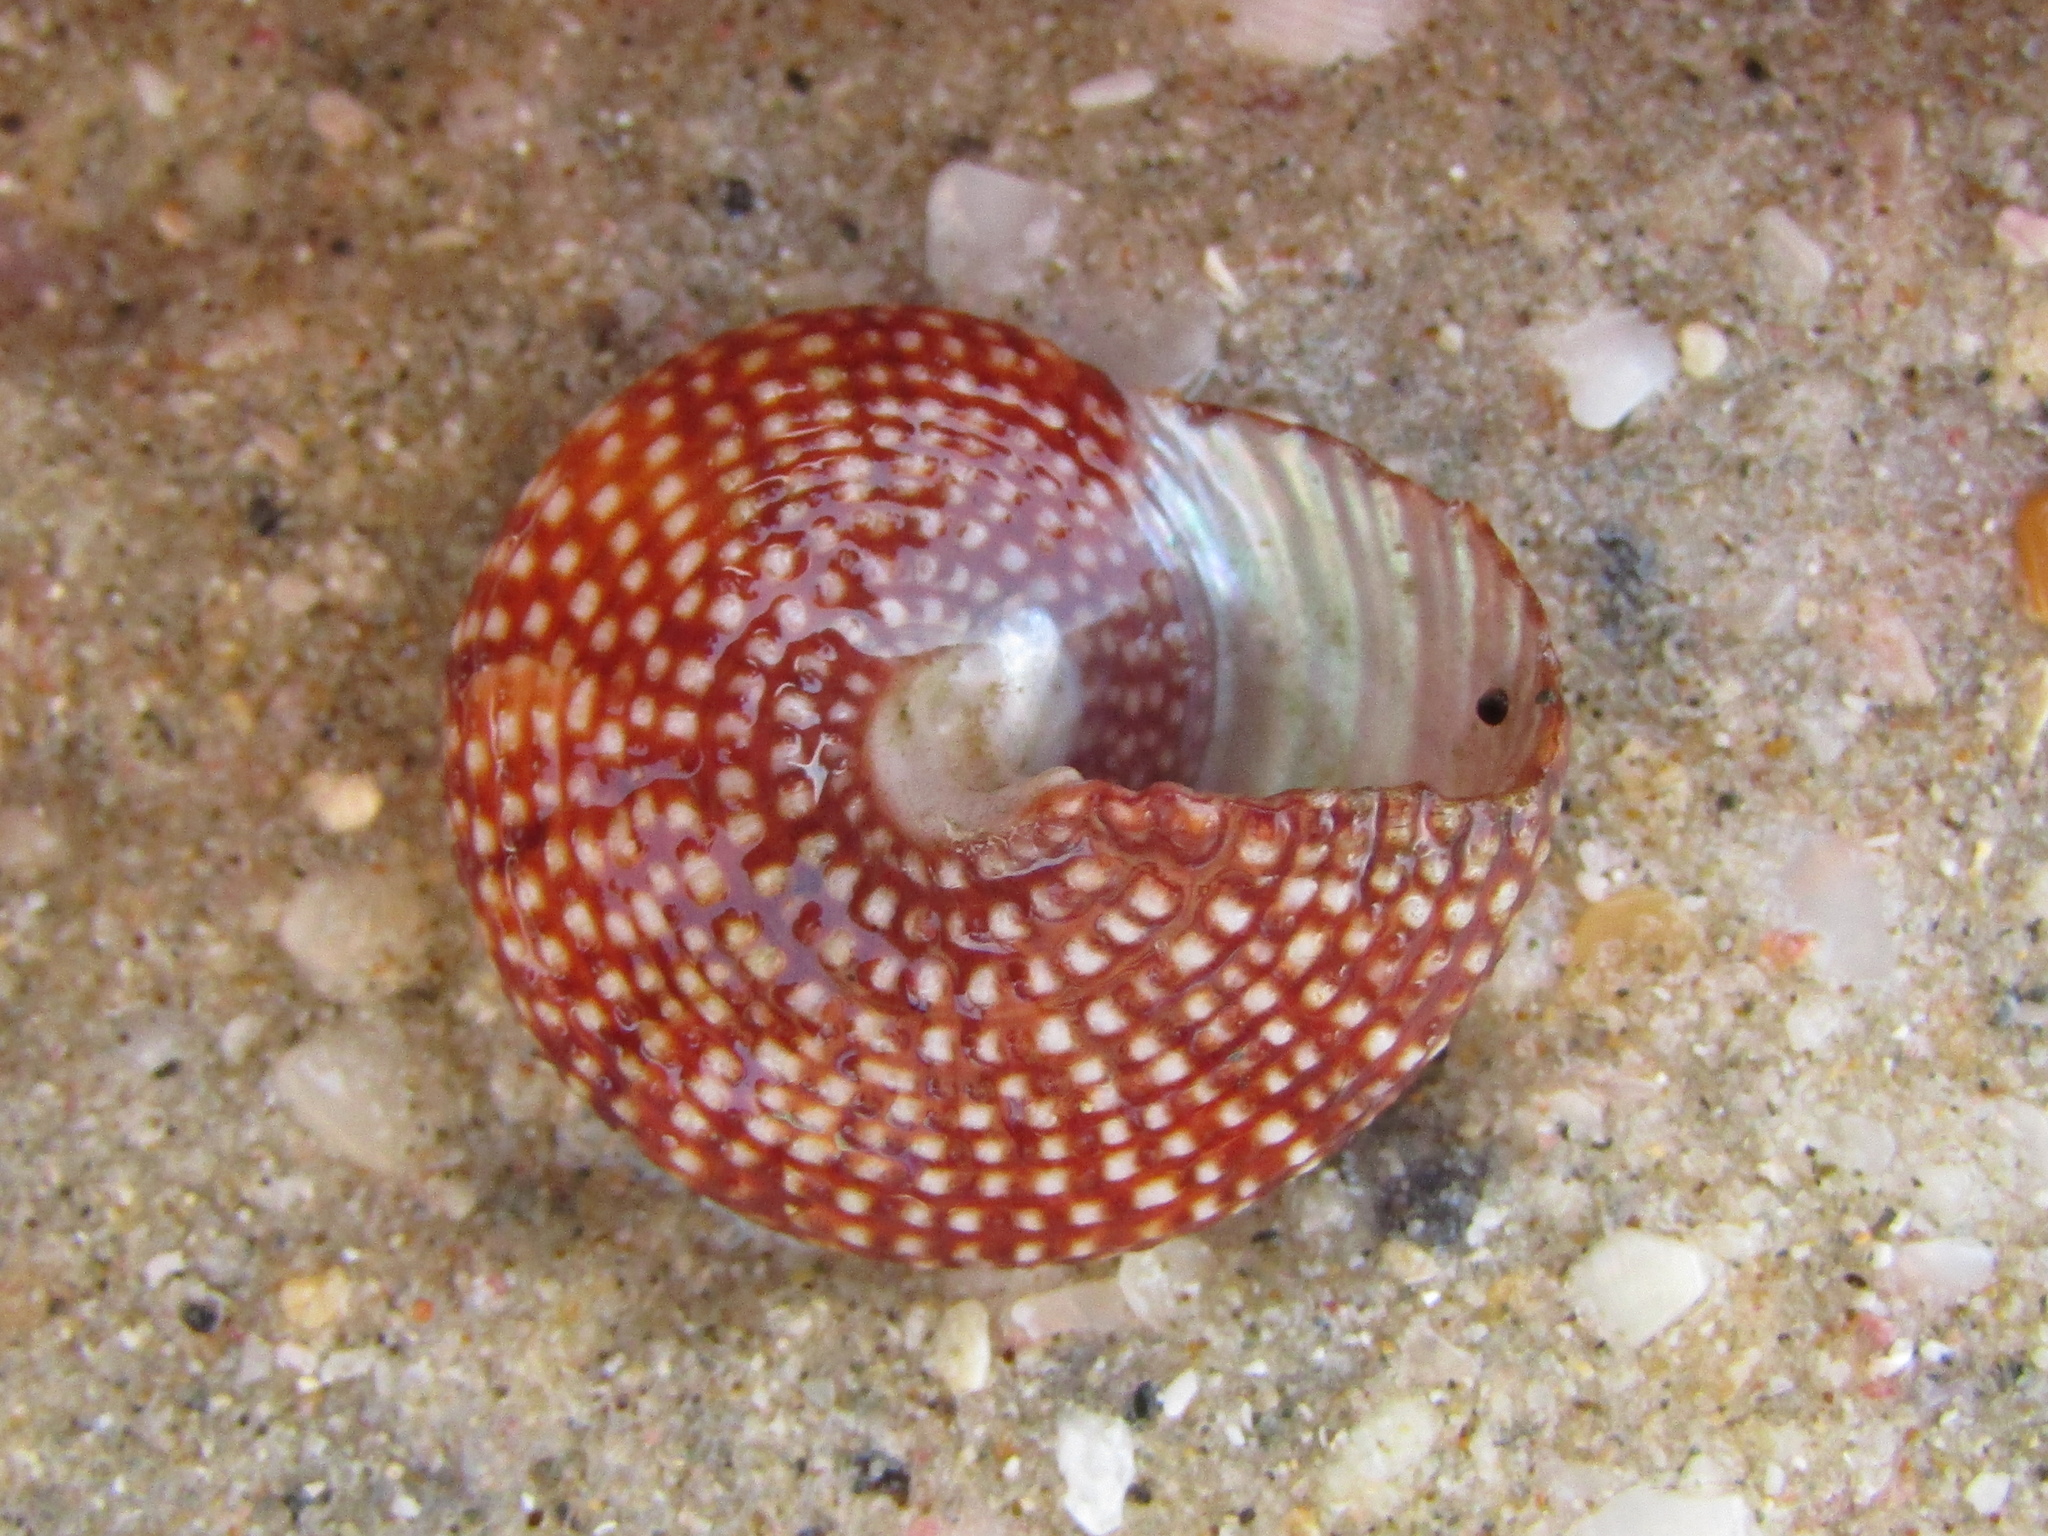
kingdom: Animalia
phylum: Mollusca
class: Gastropoda
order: Trochida
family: Calliostomatidae
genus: Maurea
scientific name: Maurea punctulata
